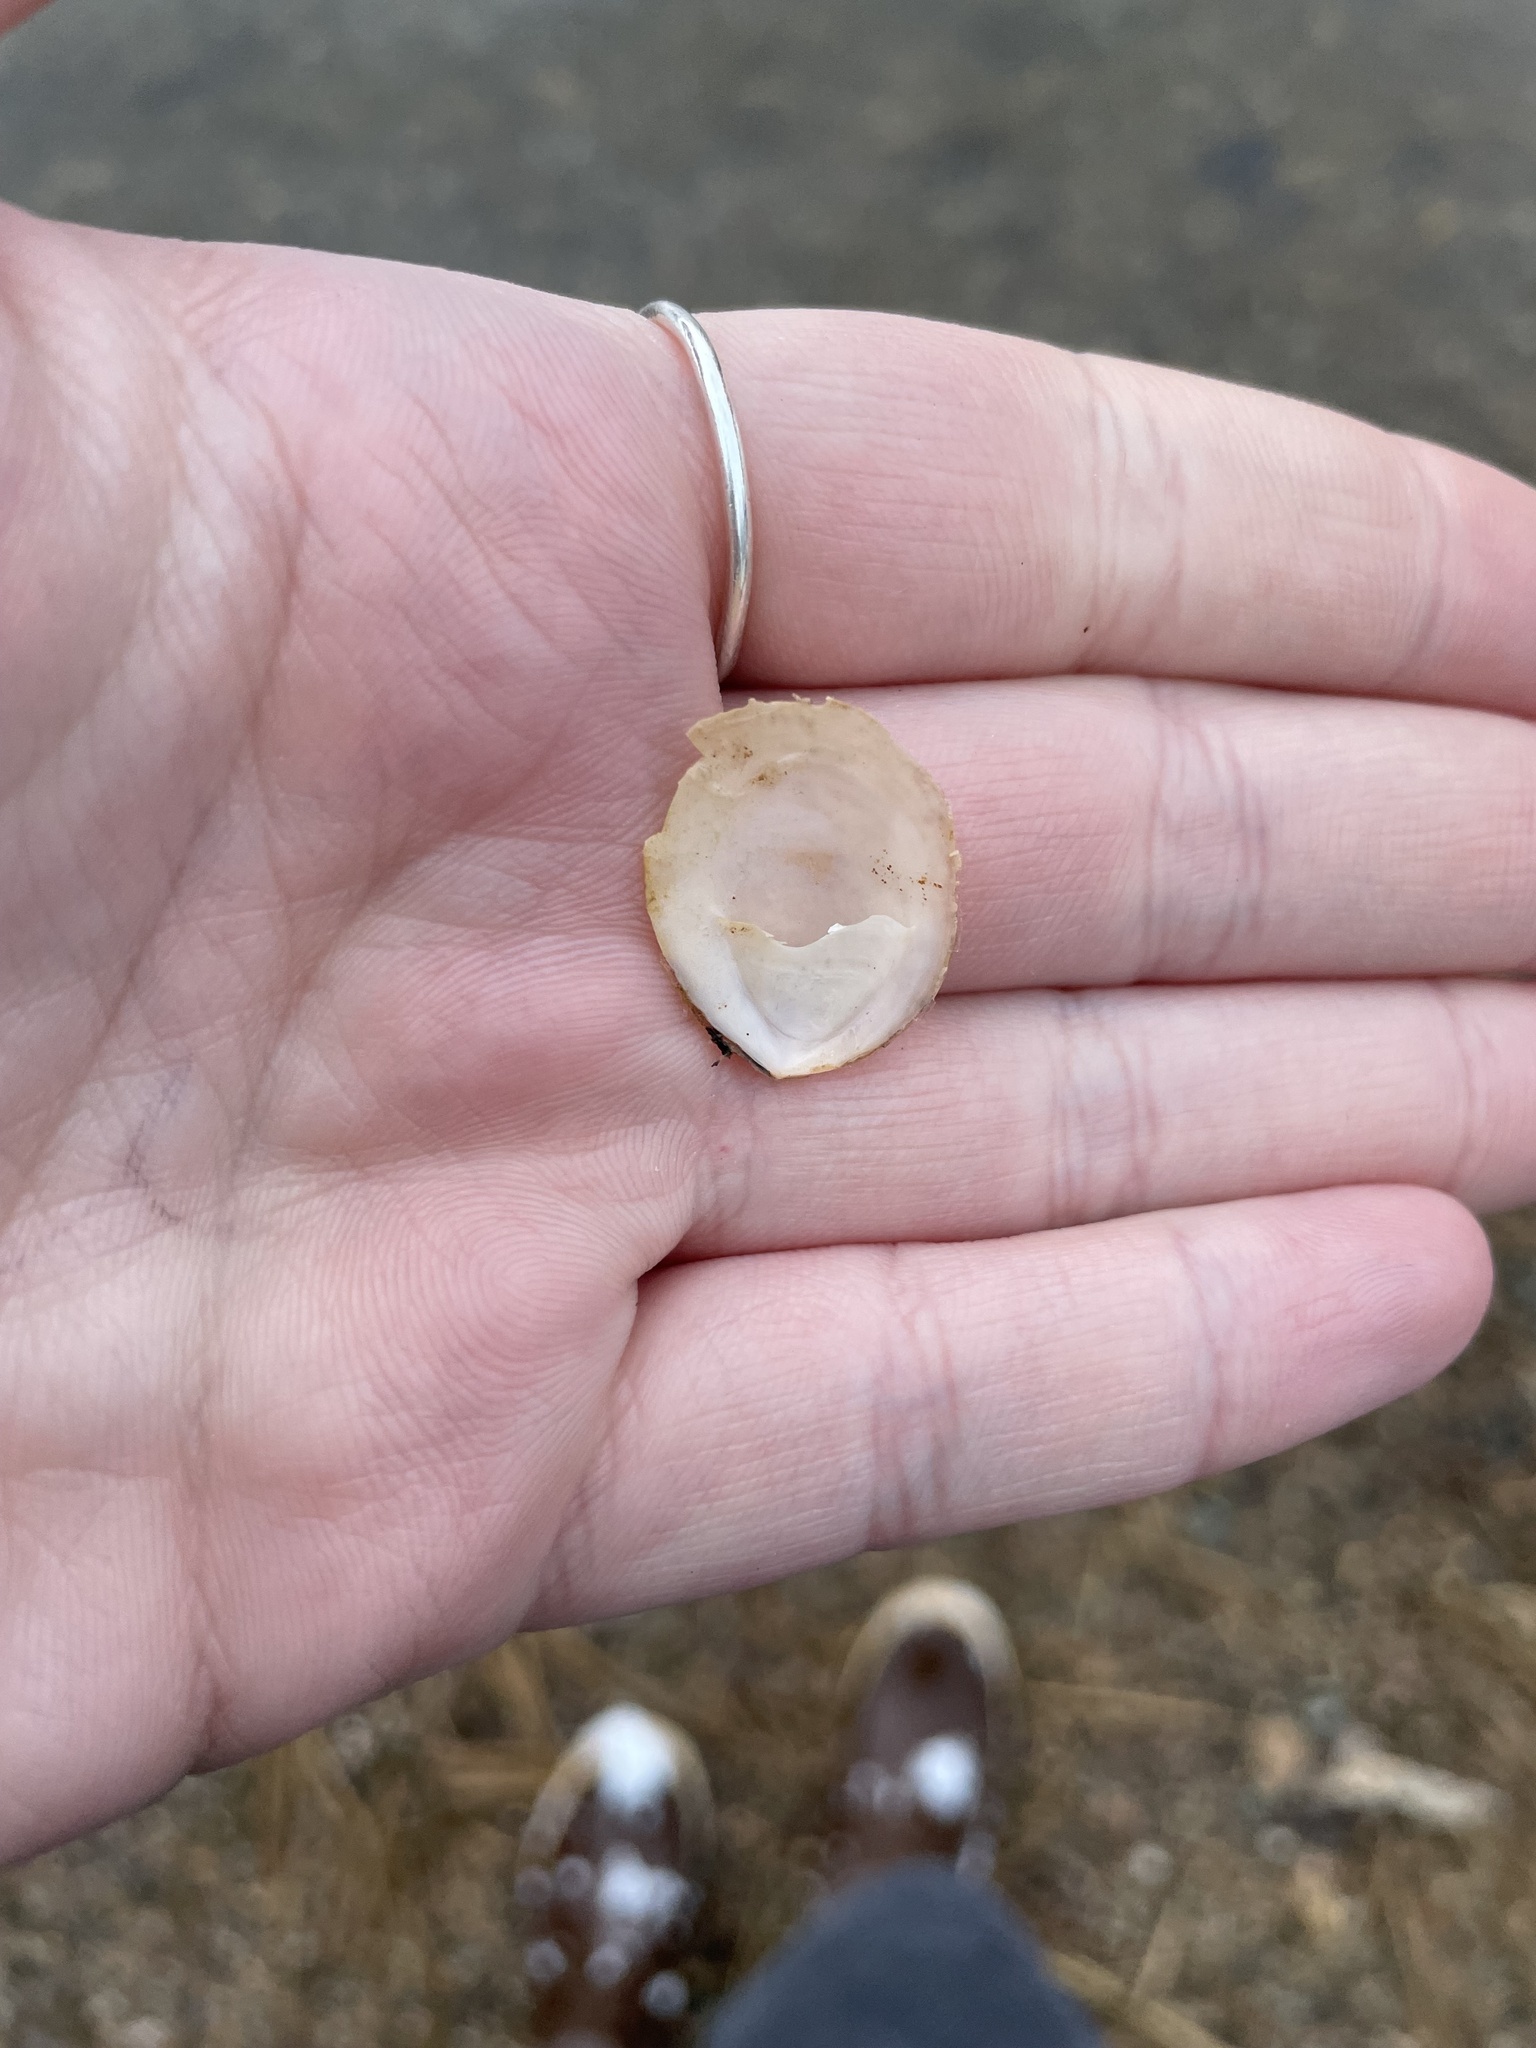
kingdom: Animalia
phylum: Mollusca
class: Gastropoda
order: Littorinimorpha
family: Calyptraeidae
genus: Crepidula
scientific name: Crepidula plana
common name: Eastern white slippersnail
